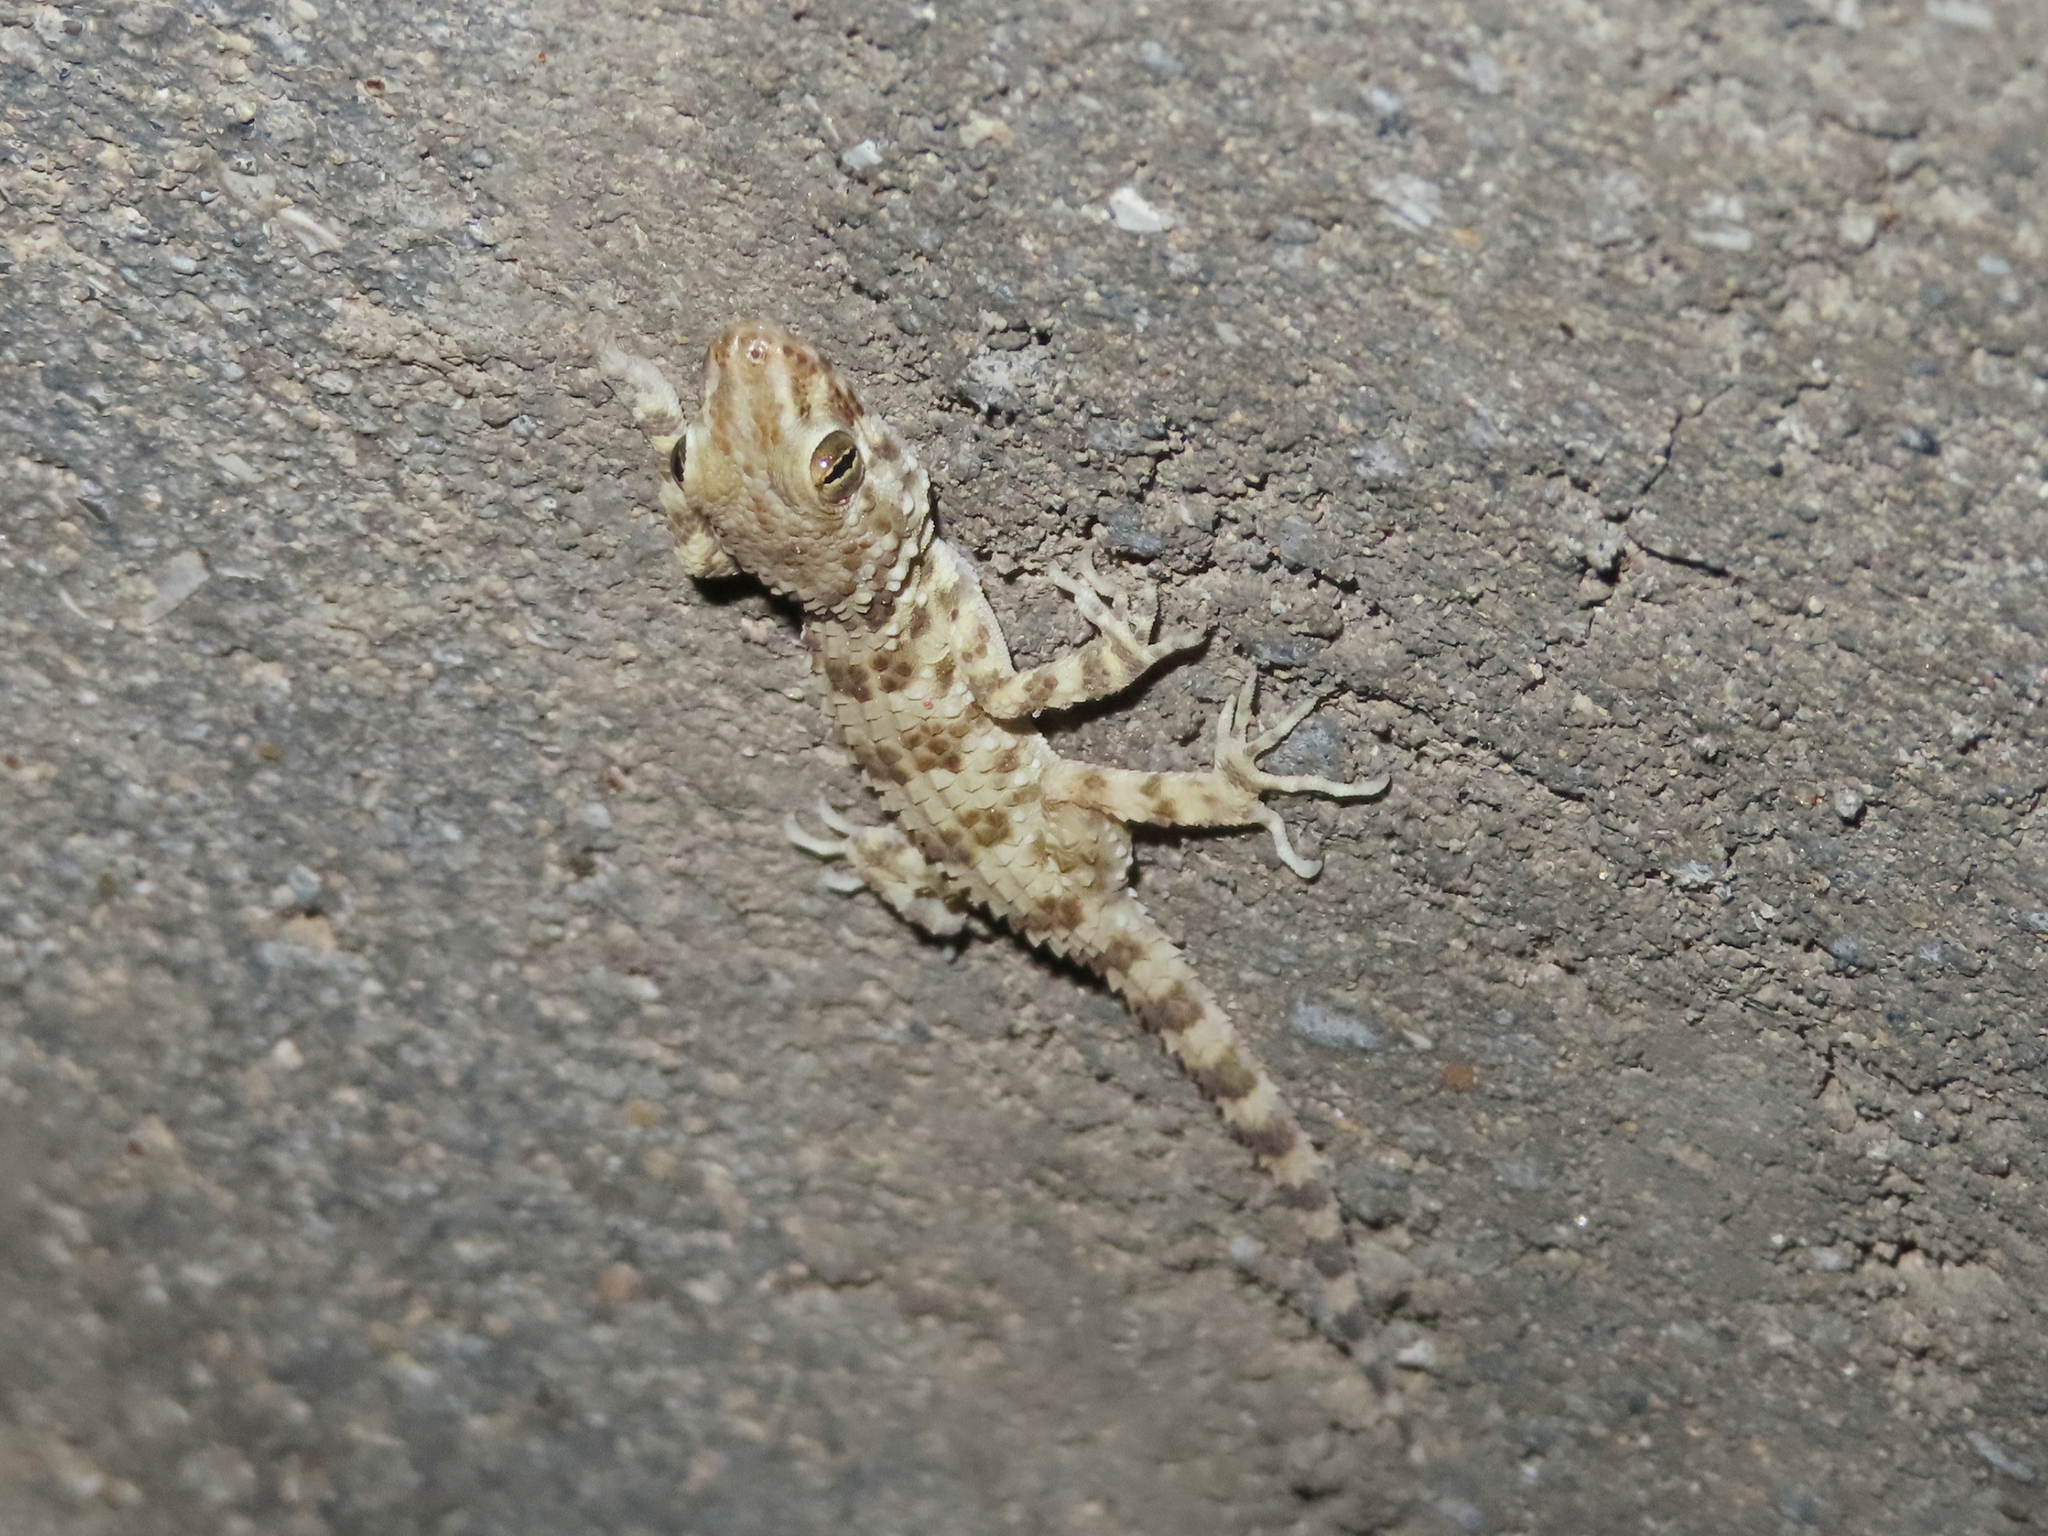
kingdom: Animalia
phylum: Chordata
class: Squamata
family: Gekkonidae
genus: Tenuidactylus
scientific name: Tenuidactylus caspius
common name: Caspian bent-toed gecko
